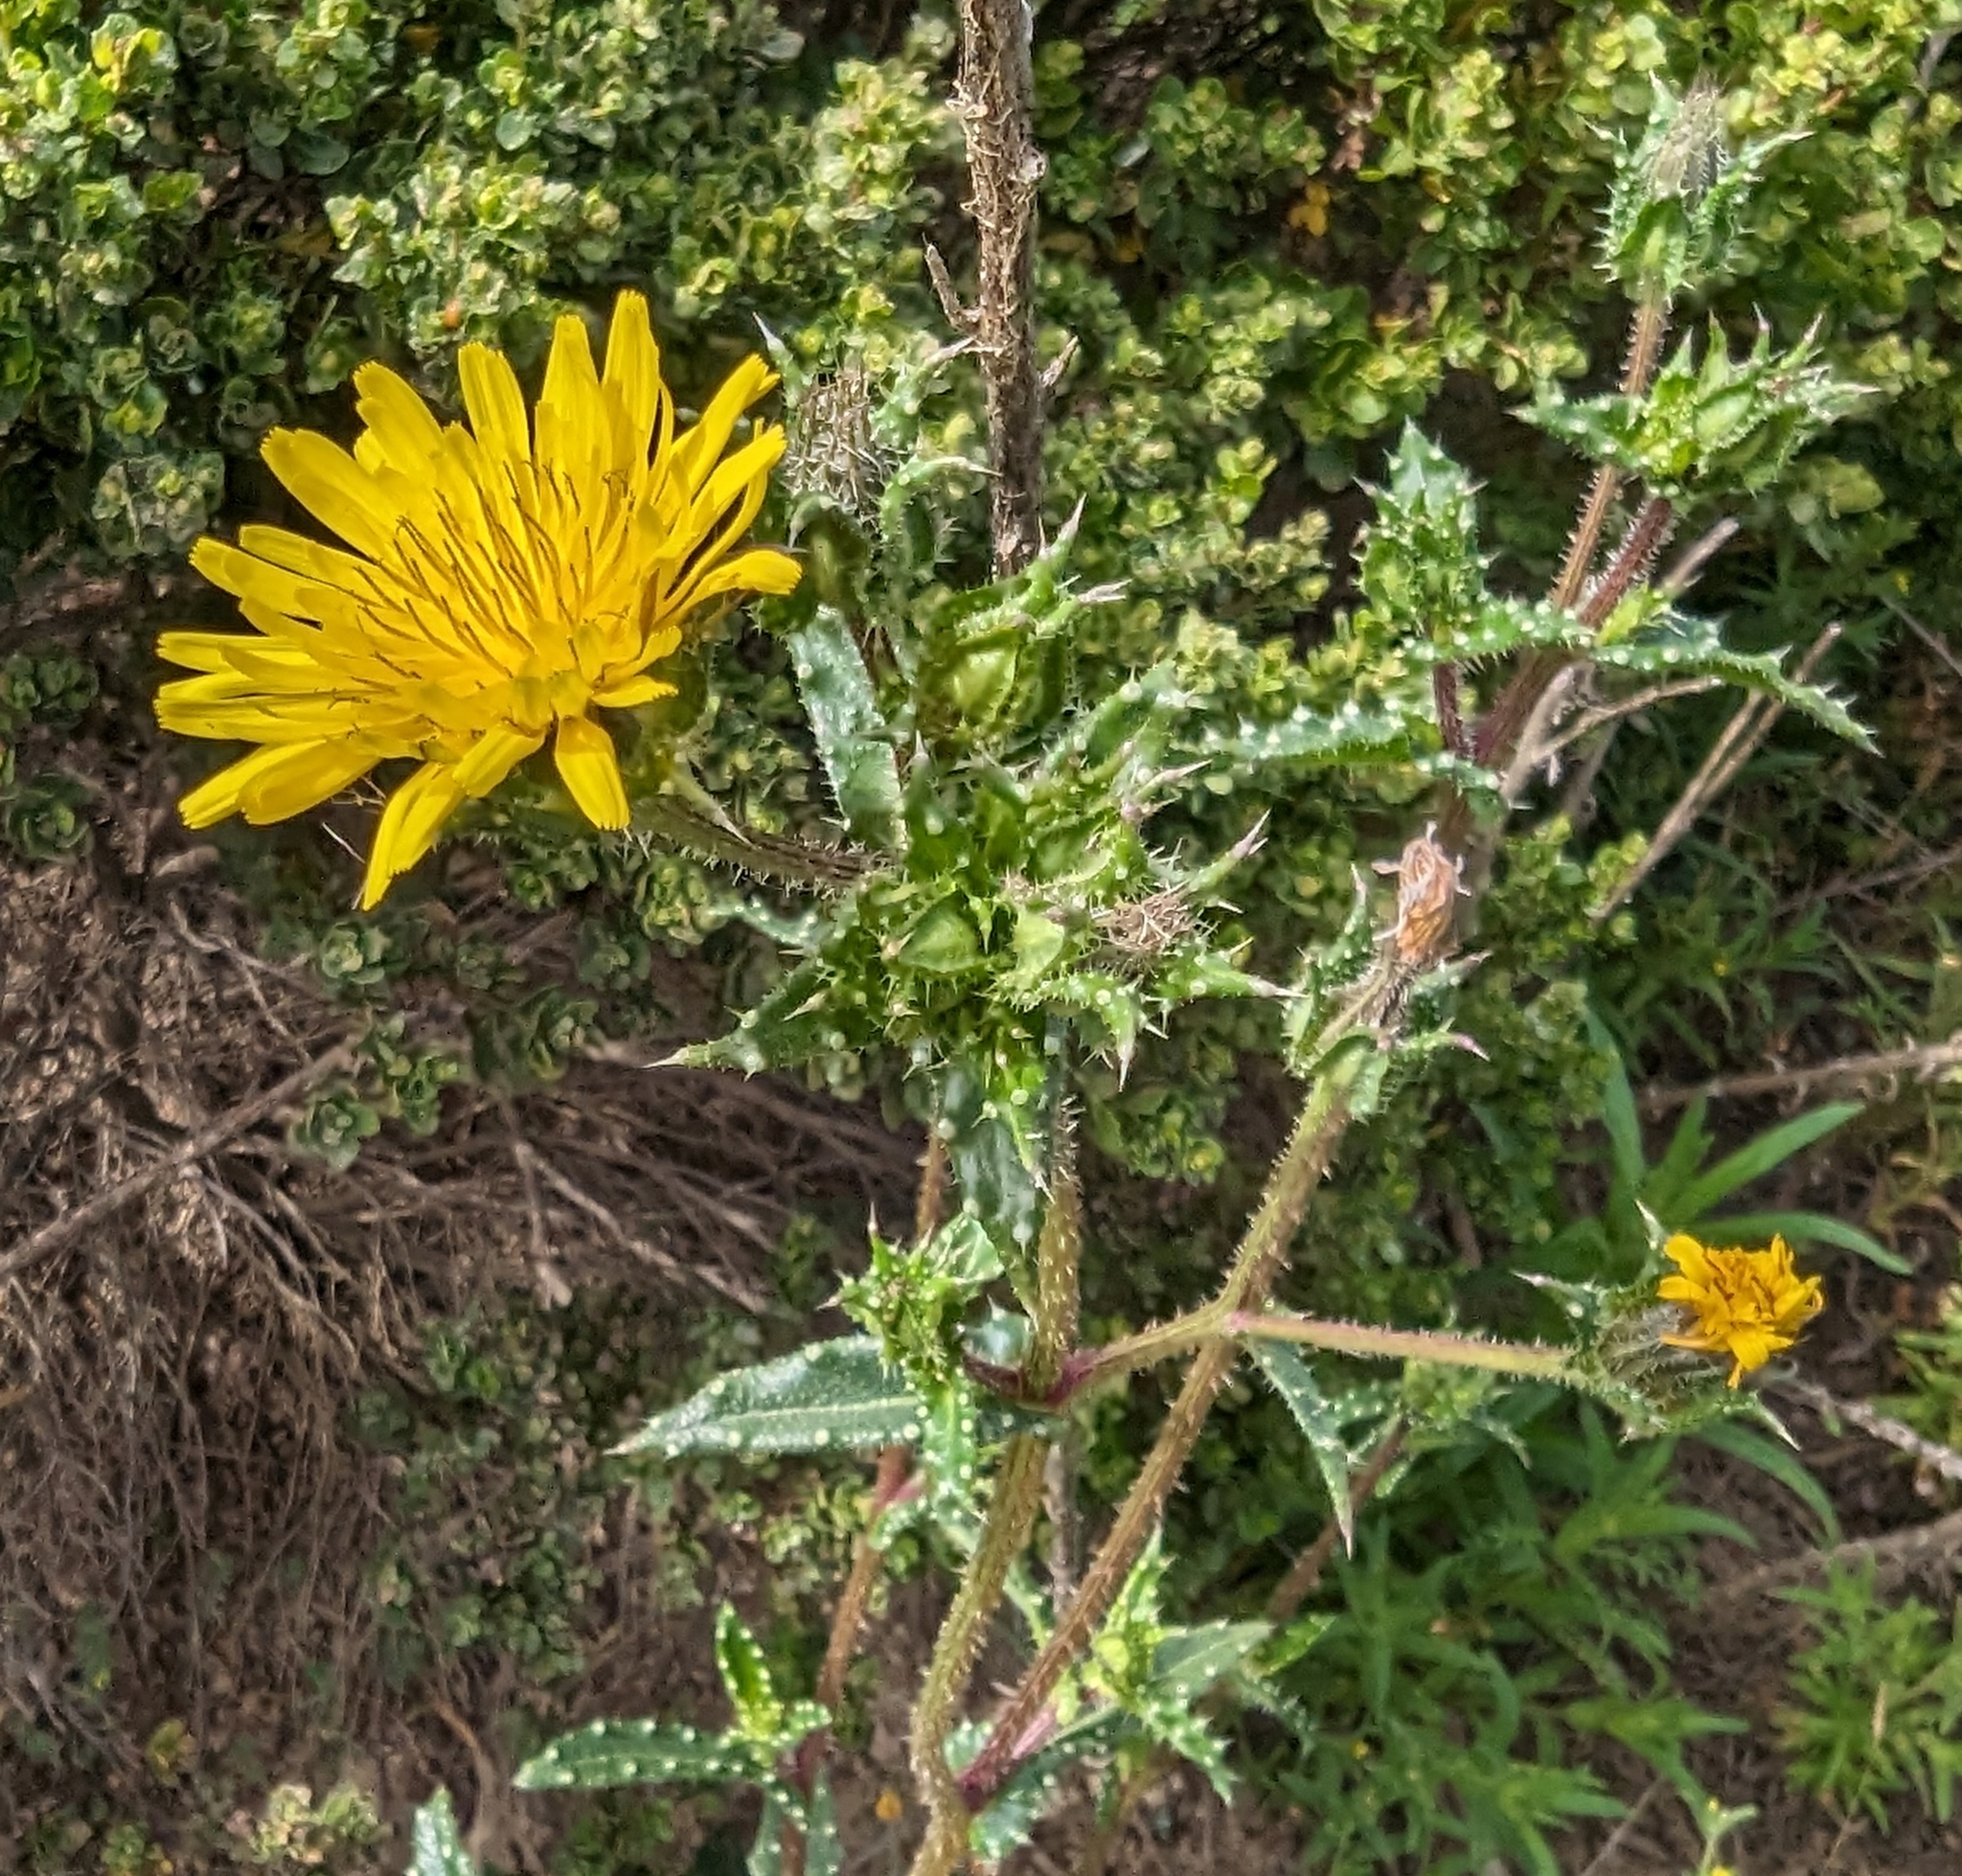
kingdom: Plantae
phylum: Tracheophyta
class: Magnoliopsida
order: Asterales
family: Asteraceae
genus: Helminthotheca
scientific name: Helminthotheca echioides
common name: Ox-tongue
